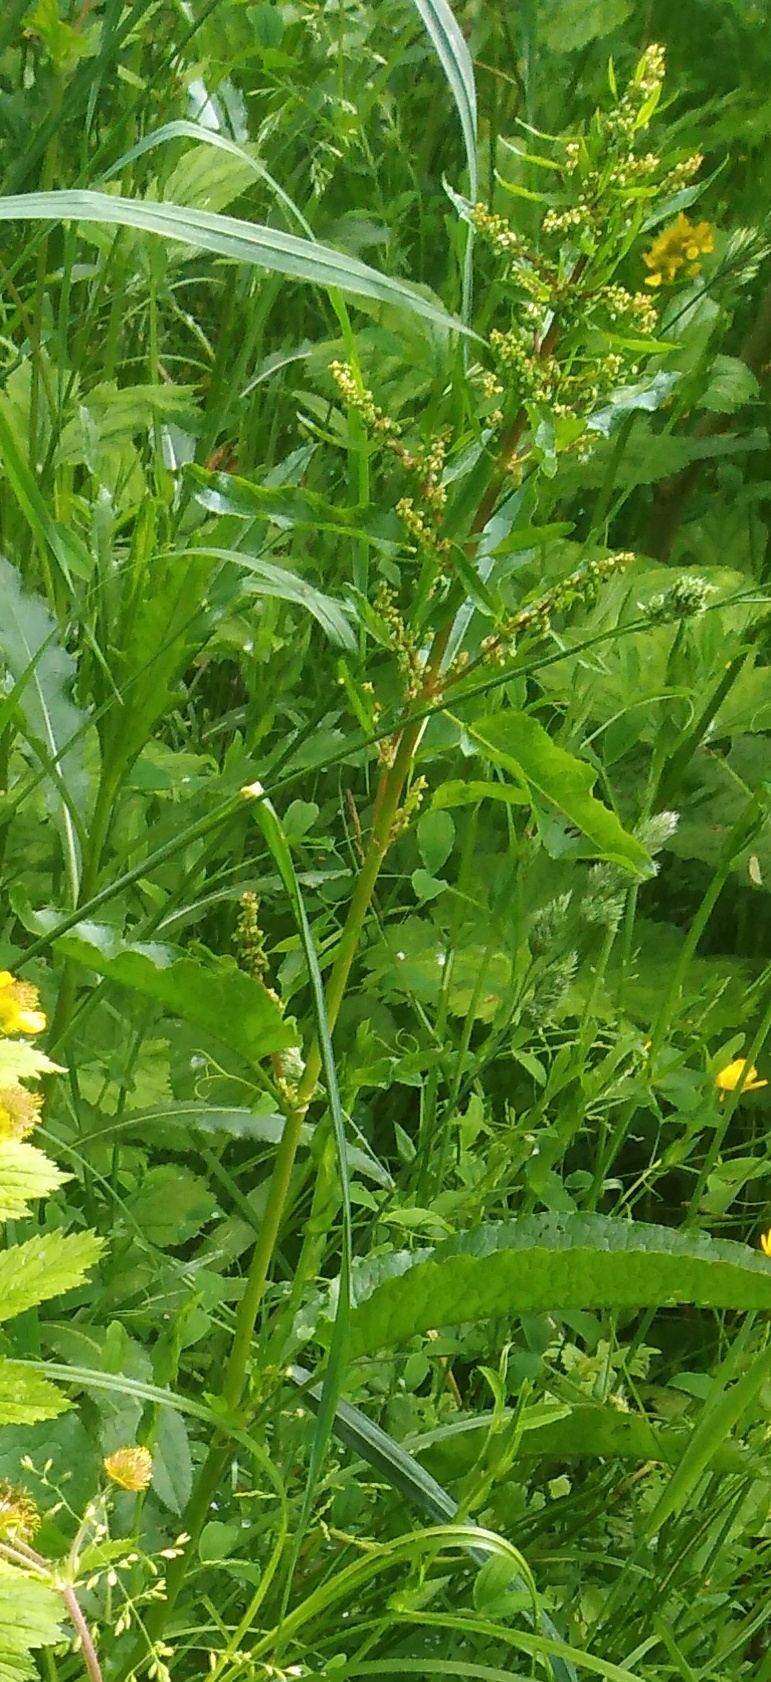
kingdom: Plantae
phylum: Tracheophyta
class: Magnoliopsida
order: Caryophyllales
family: Polygonaceae
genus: Rumex
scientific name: Rumex obtusifolius
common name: Bitter dock
